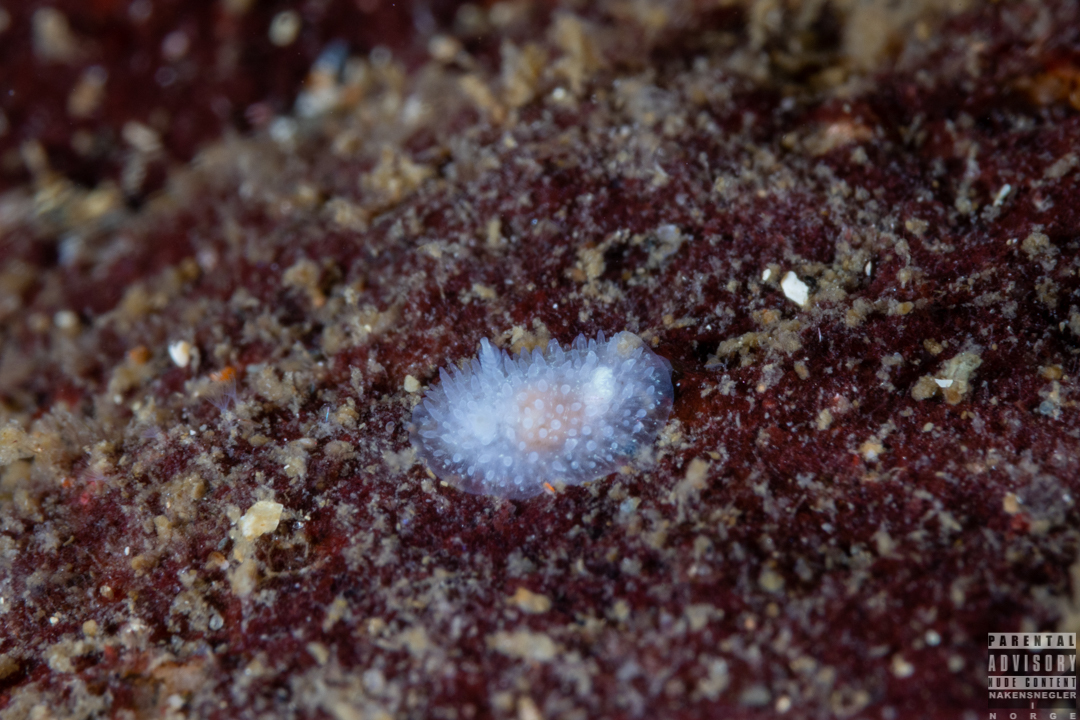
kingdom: Animalia
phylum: Mollusca
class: Gastropoda
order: Nudibranchia
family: Onchidorididae
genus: Acanthodoris
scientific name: Acanthodoris pilosa
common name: Hairy spiny doris
